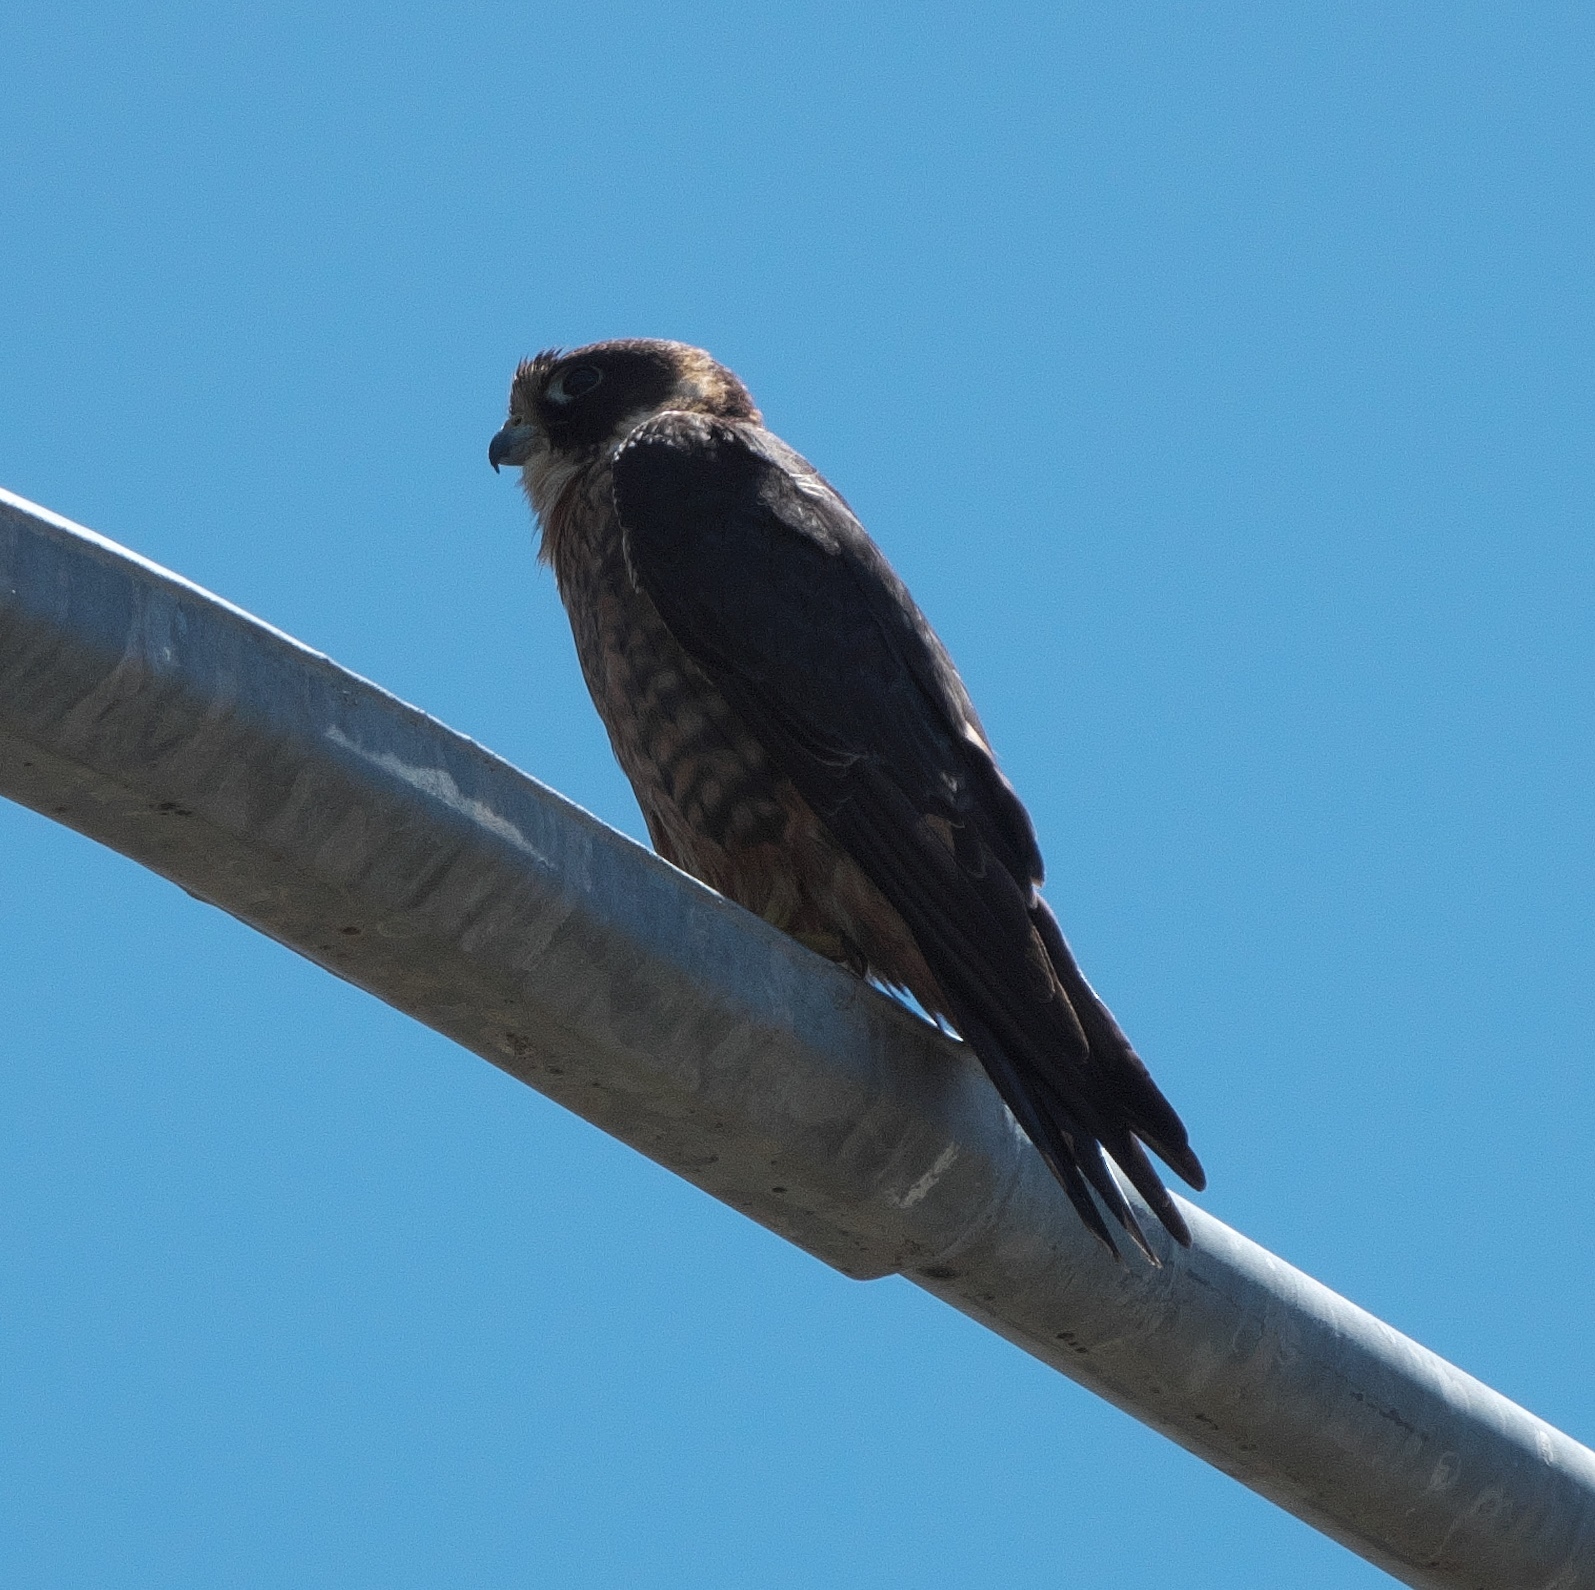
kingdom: Animalia
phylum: Chordata
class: Aves
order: Falconiformes
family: Falconidae
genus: Falco
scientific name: Falco longipennis
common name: Australian hobby
